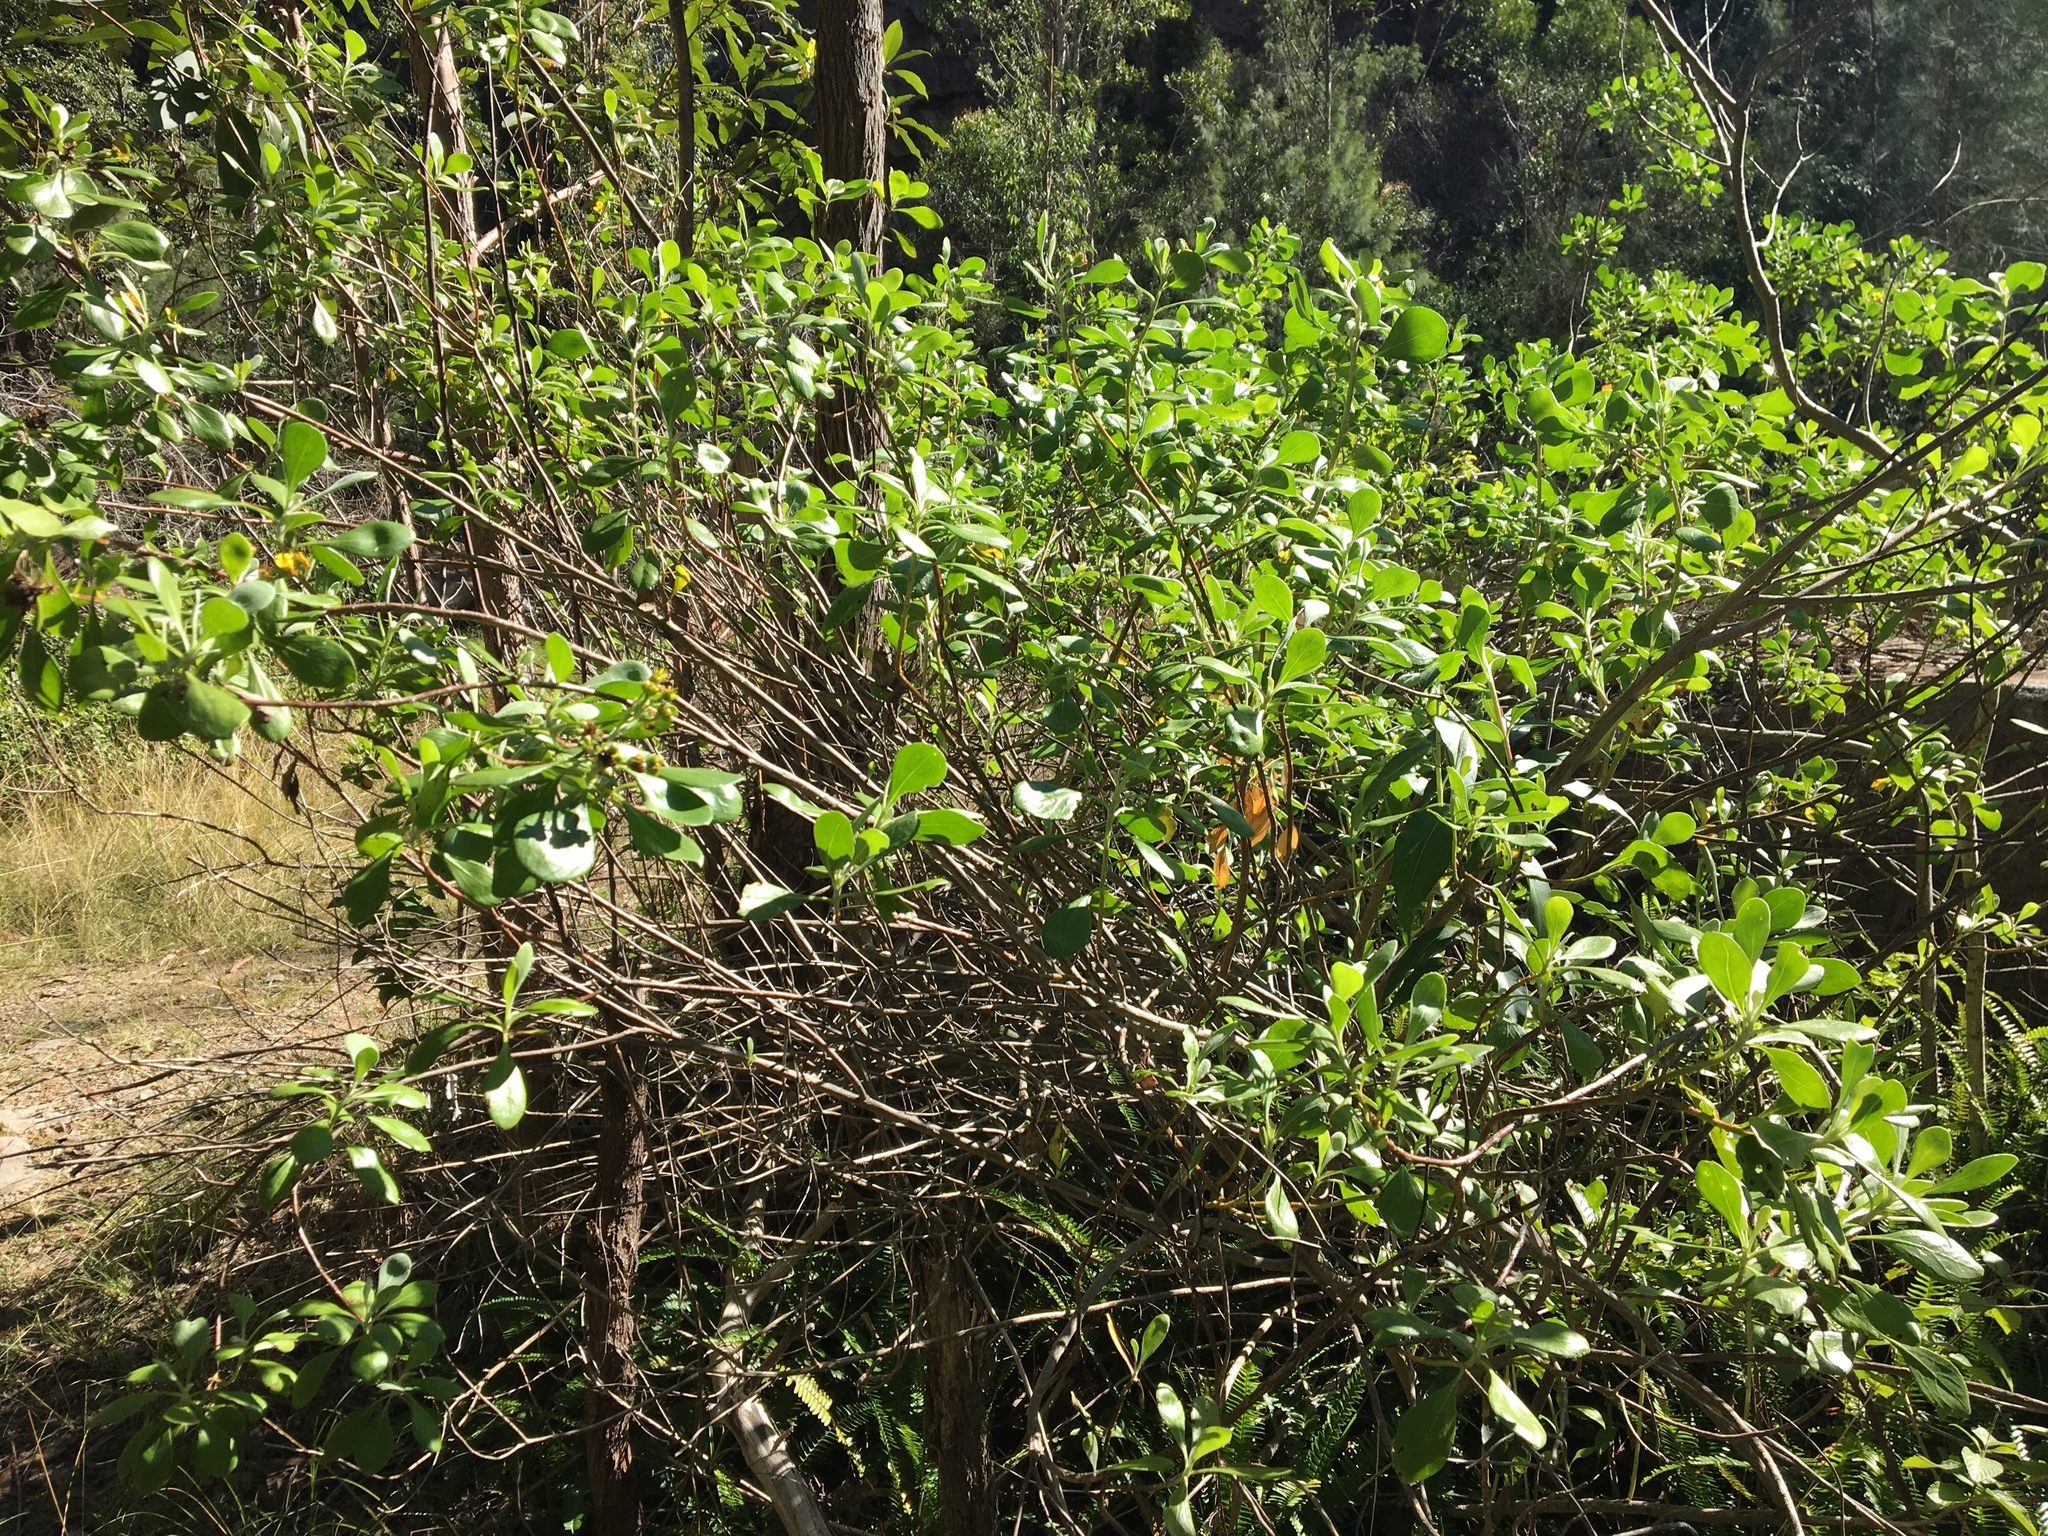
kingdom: Plantae
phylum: Tracheophyta
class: Magnoliopsida
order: Asterales
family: Asteraceae
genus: Osteospermum
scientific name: Osteospermum moniliferum
